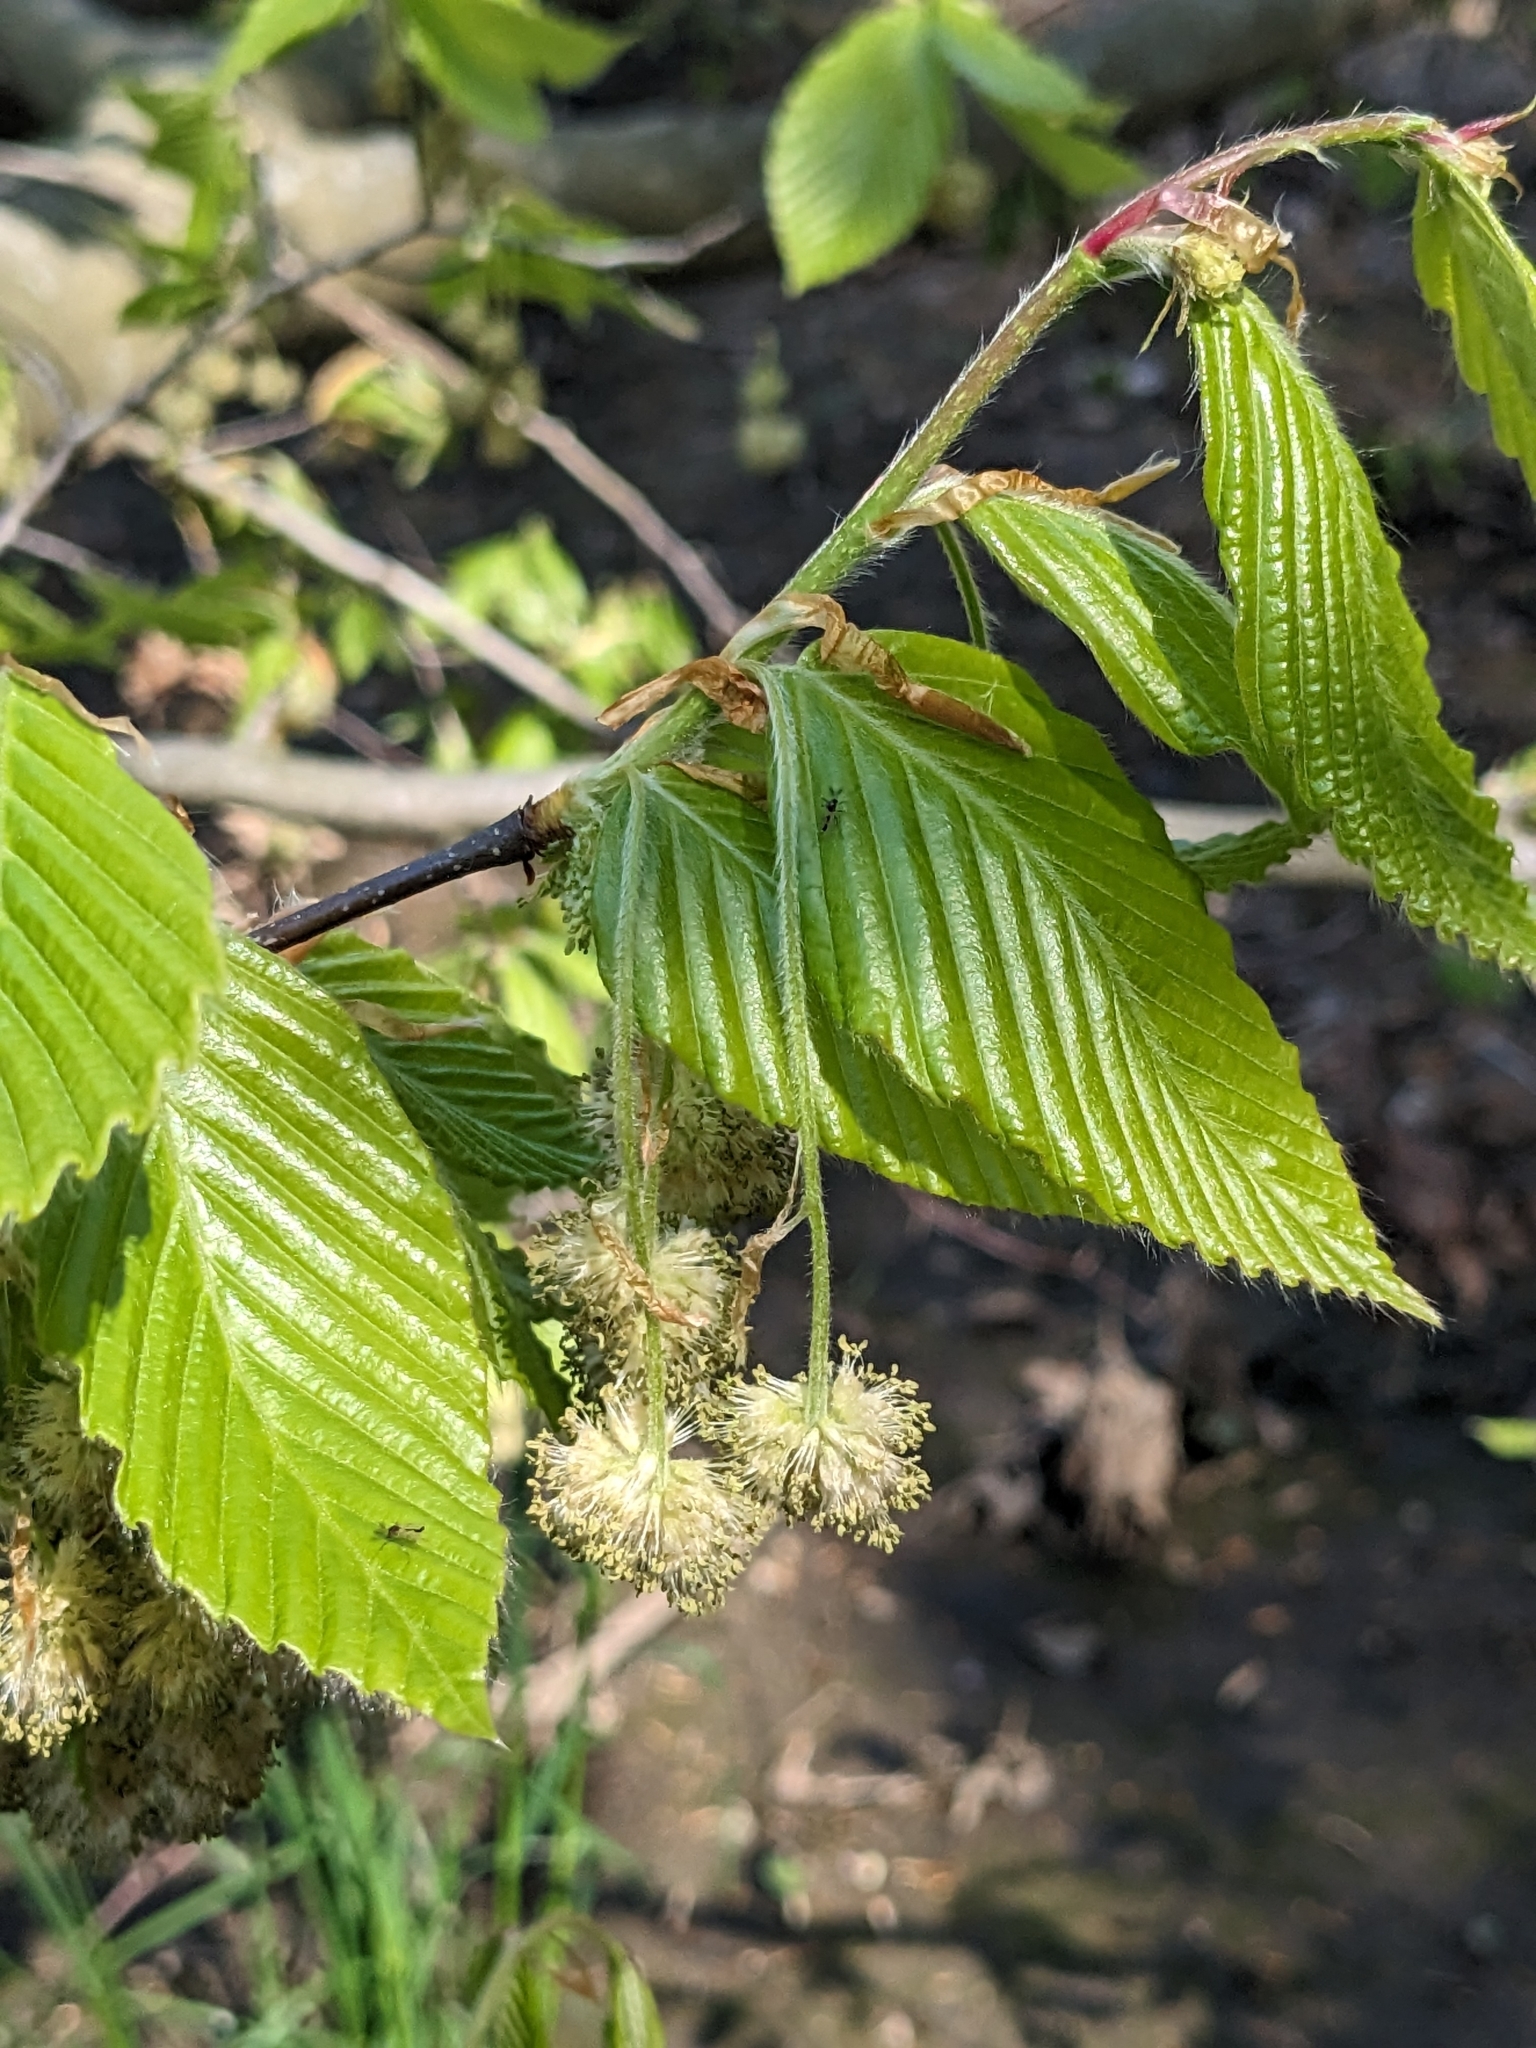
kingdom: Plantae
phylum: Tracheophyta
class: Magnoliopsida
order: Fagales
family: Fagaceae
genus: Fagus
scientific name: Fagus grandifolia
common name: American beech
